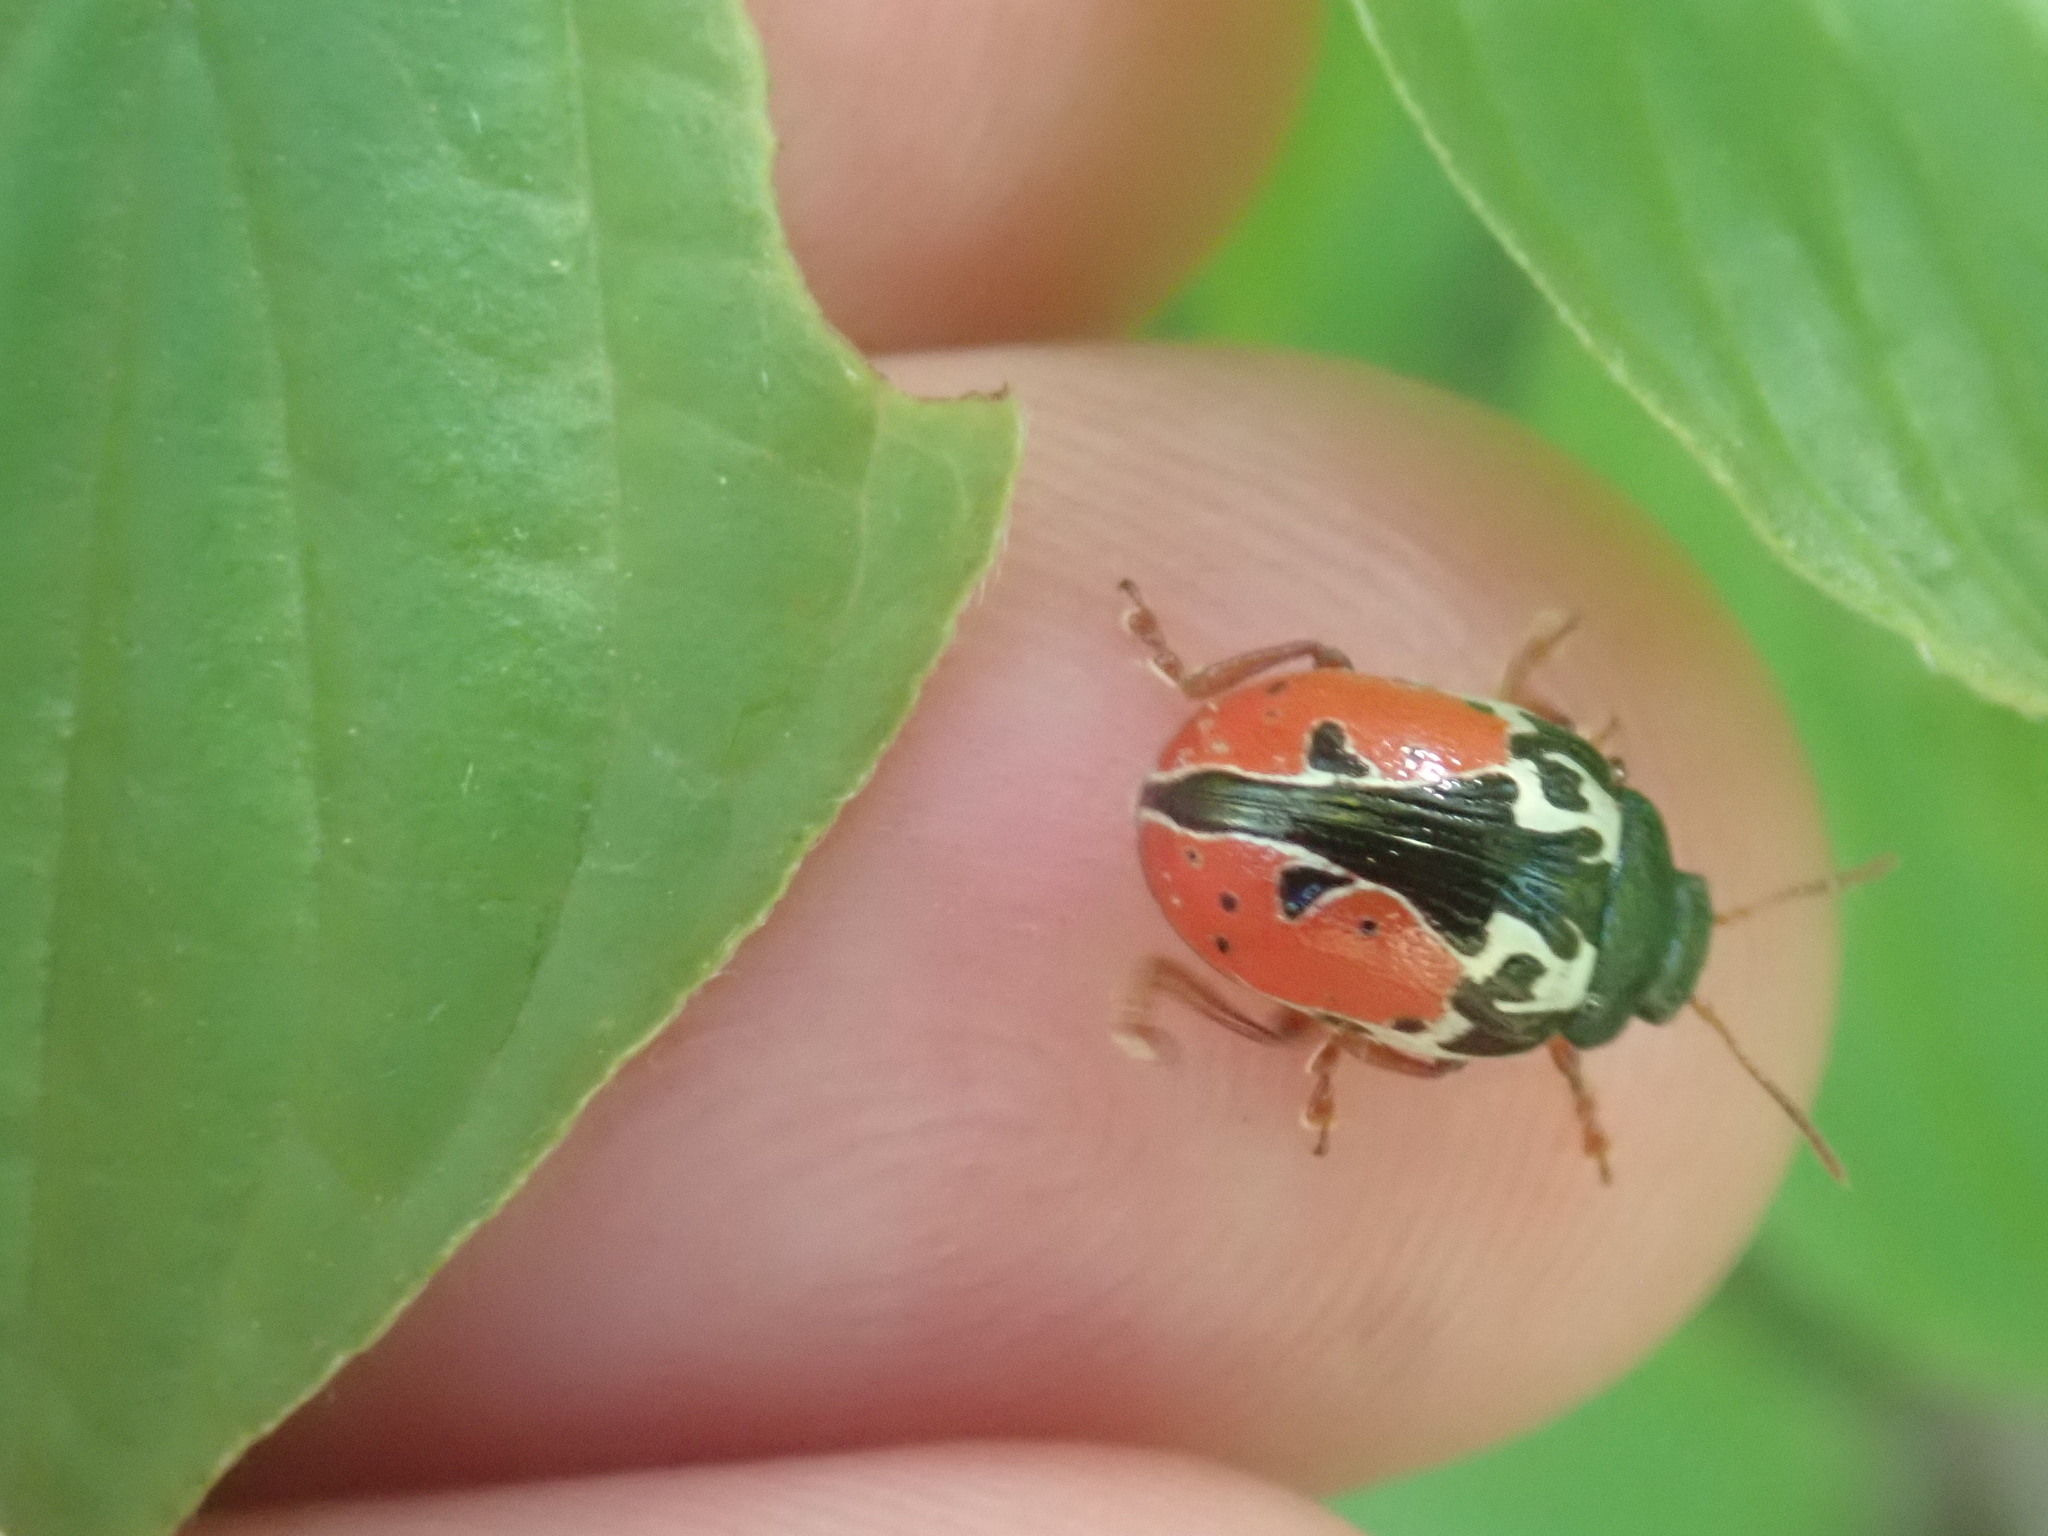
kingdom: Animalia
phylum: Arthropoda
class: Insecta
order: Coleoptera
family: Chrysomelidae
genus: Calligrapha
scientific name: Calligrapha rowena
